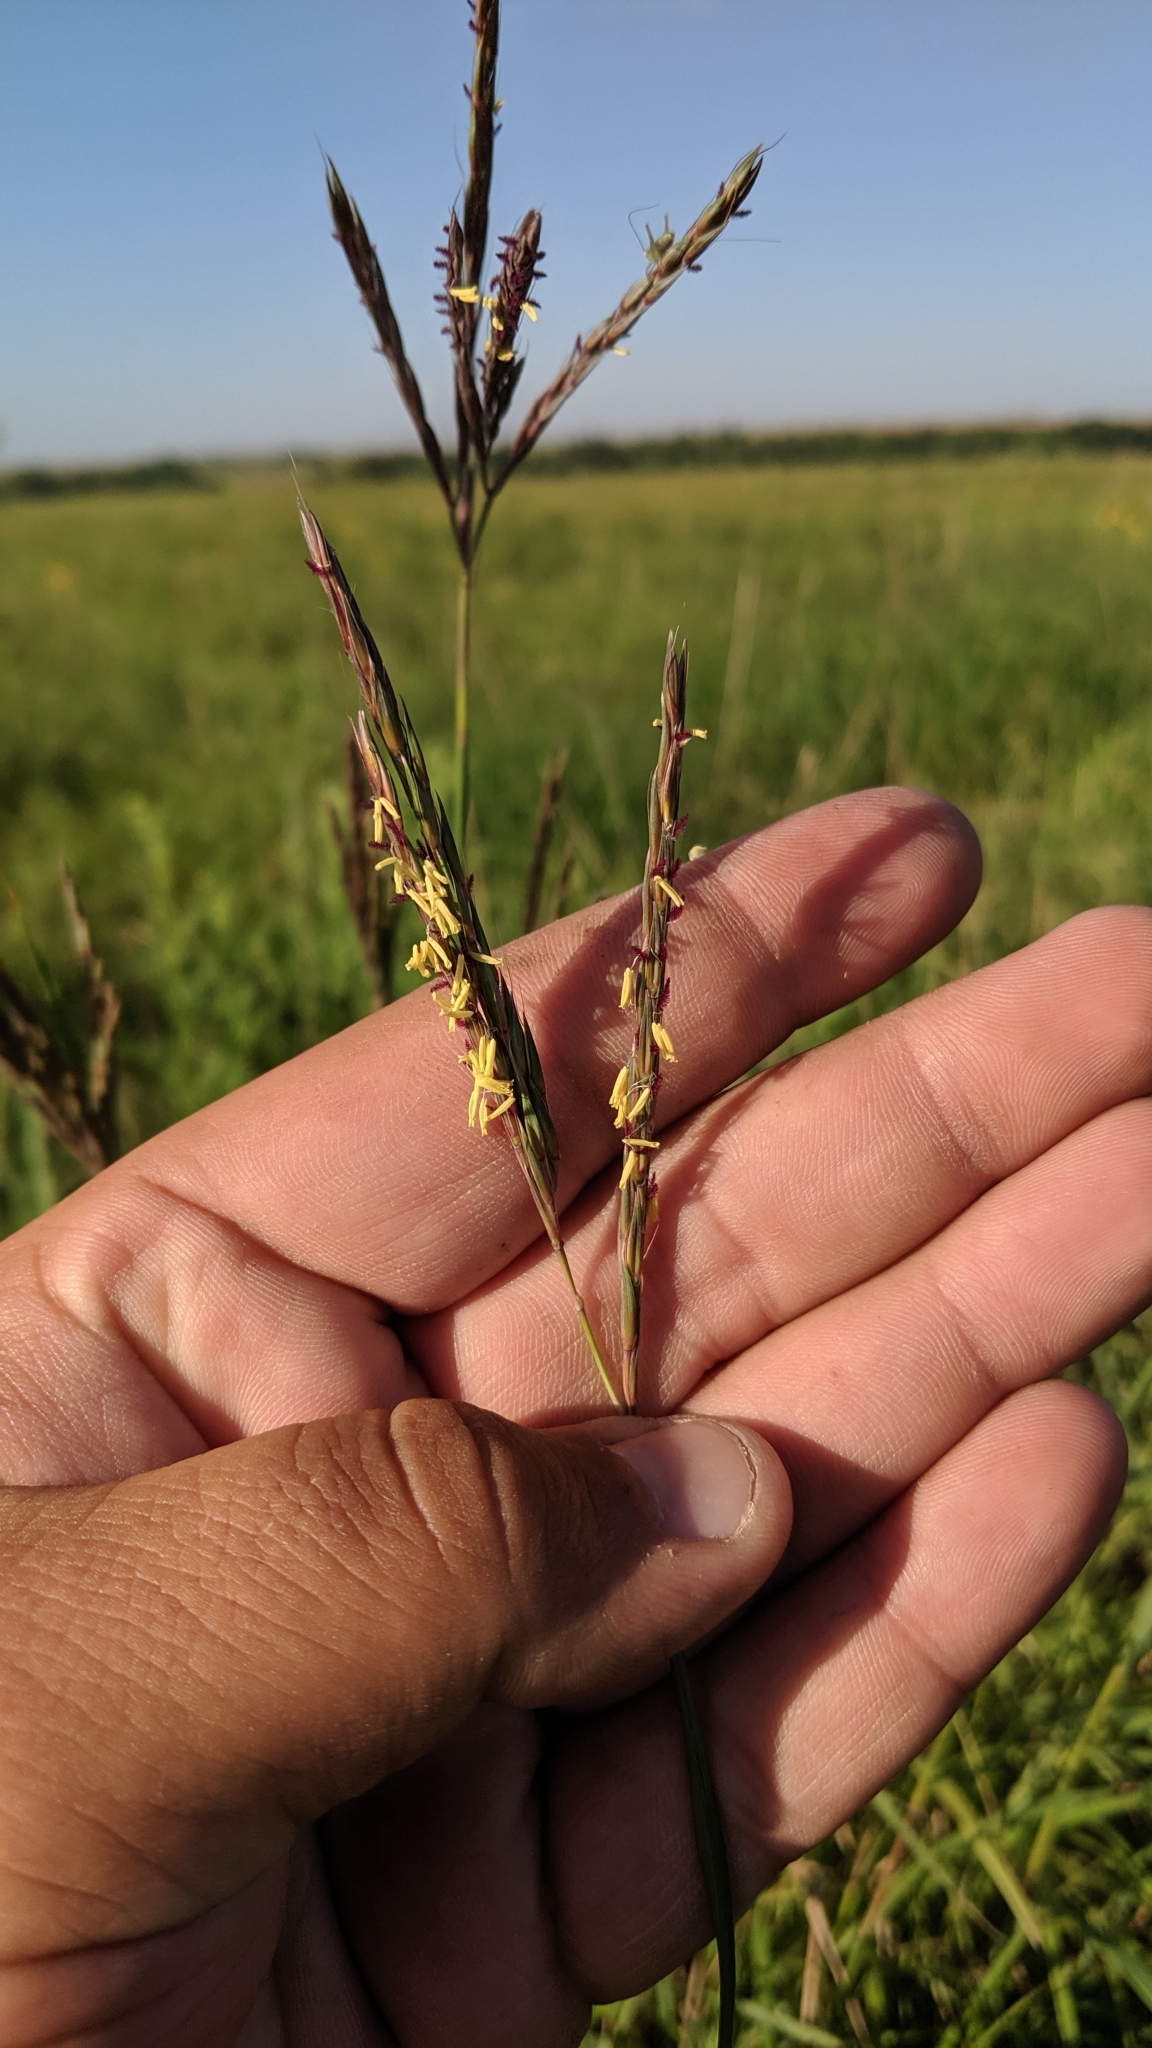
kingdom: Plantae
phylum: Tracheophyta
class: Liliopsida
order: Poales
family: Poaceae
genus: Andropogon
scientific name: Andropogon gerardi
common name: Big bluestem
